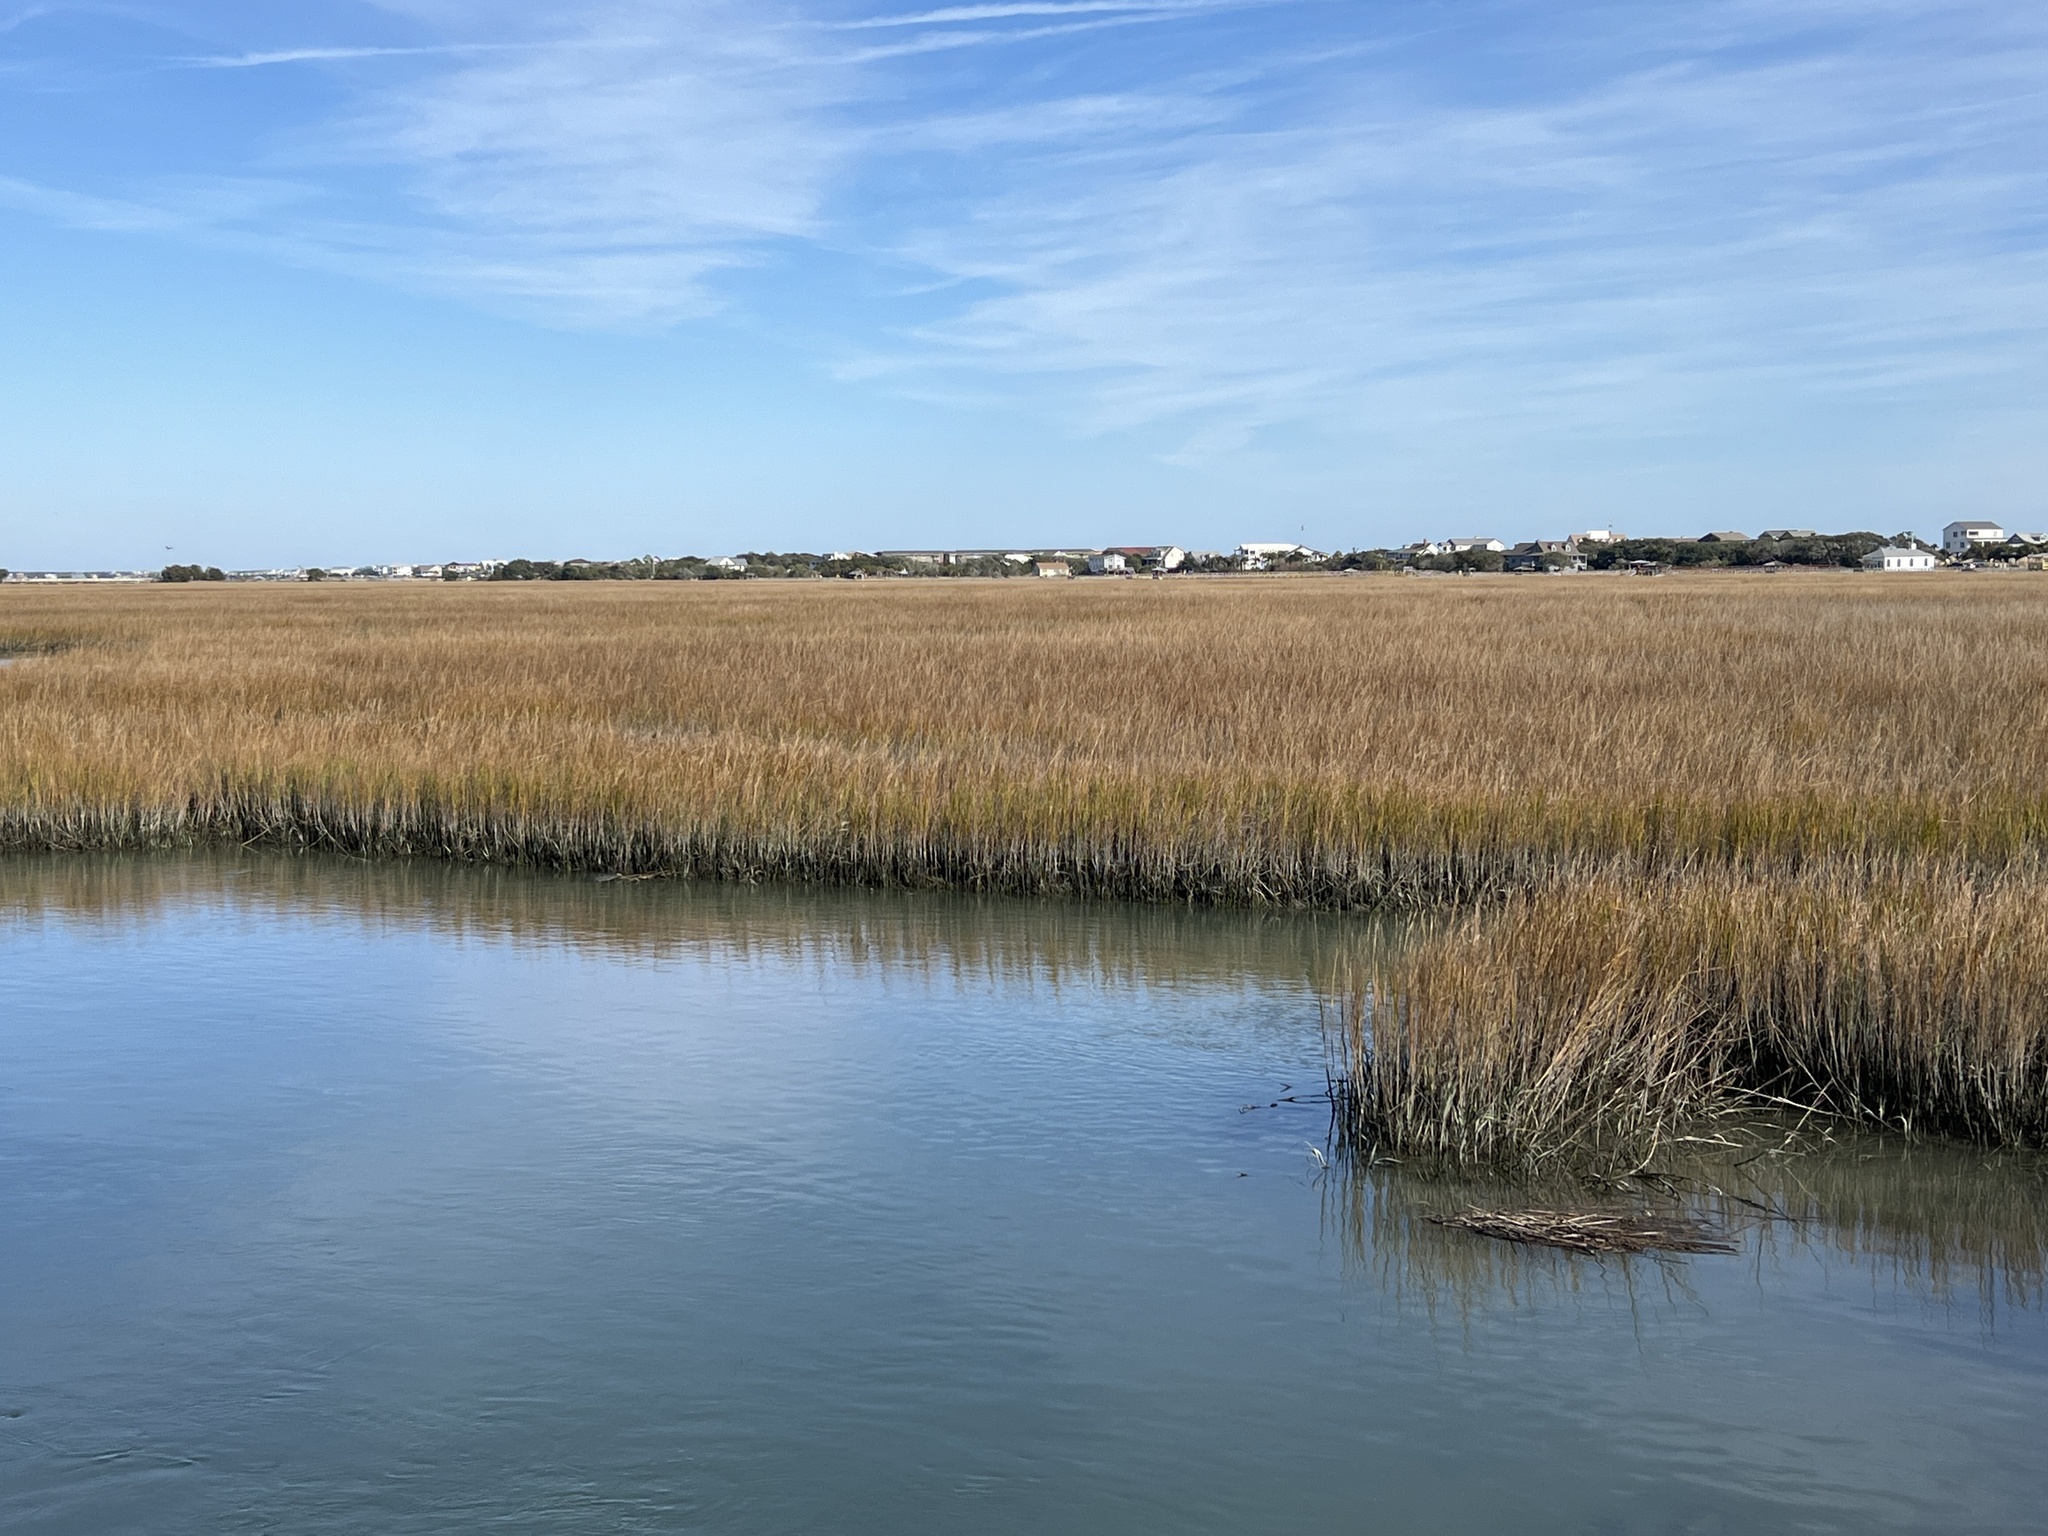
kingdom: Plantae
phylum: Tracheophyta
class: Liliopsida
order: Poales
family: Poaceae
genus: Sporobolus
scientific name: Sporobolus alterniflorus
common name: Atlantic cordgrass
